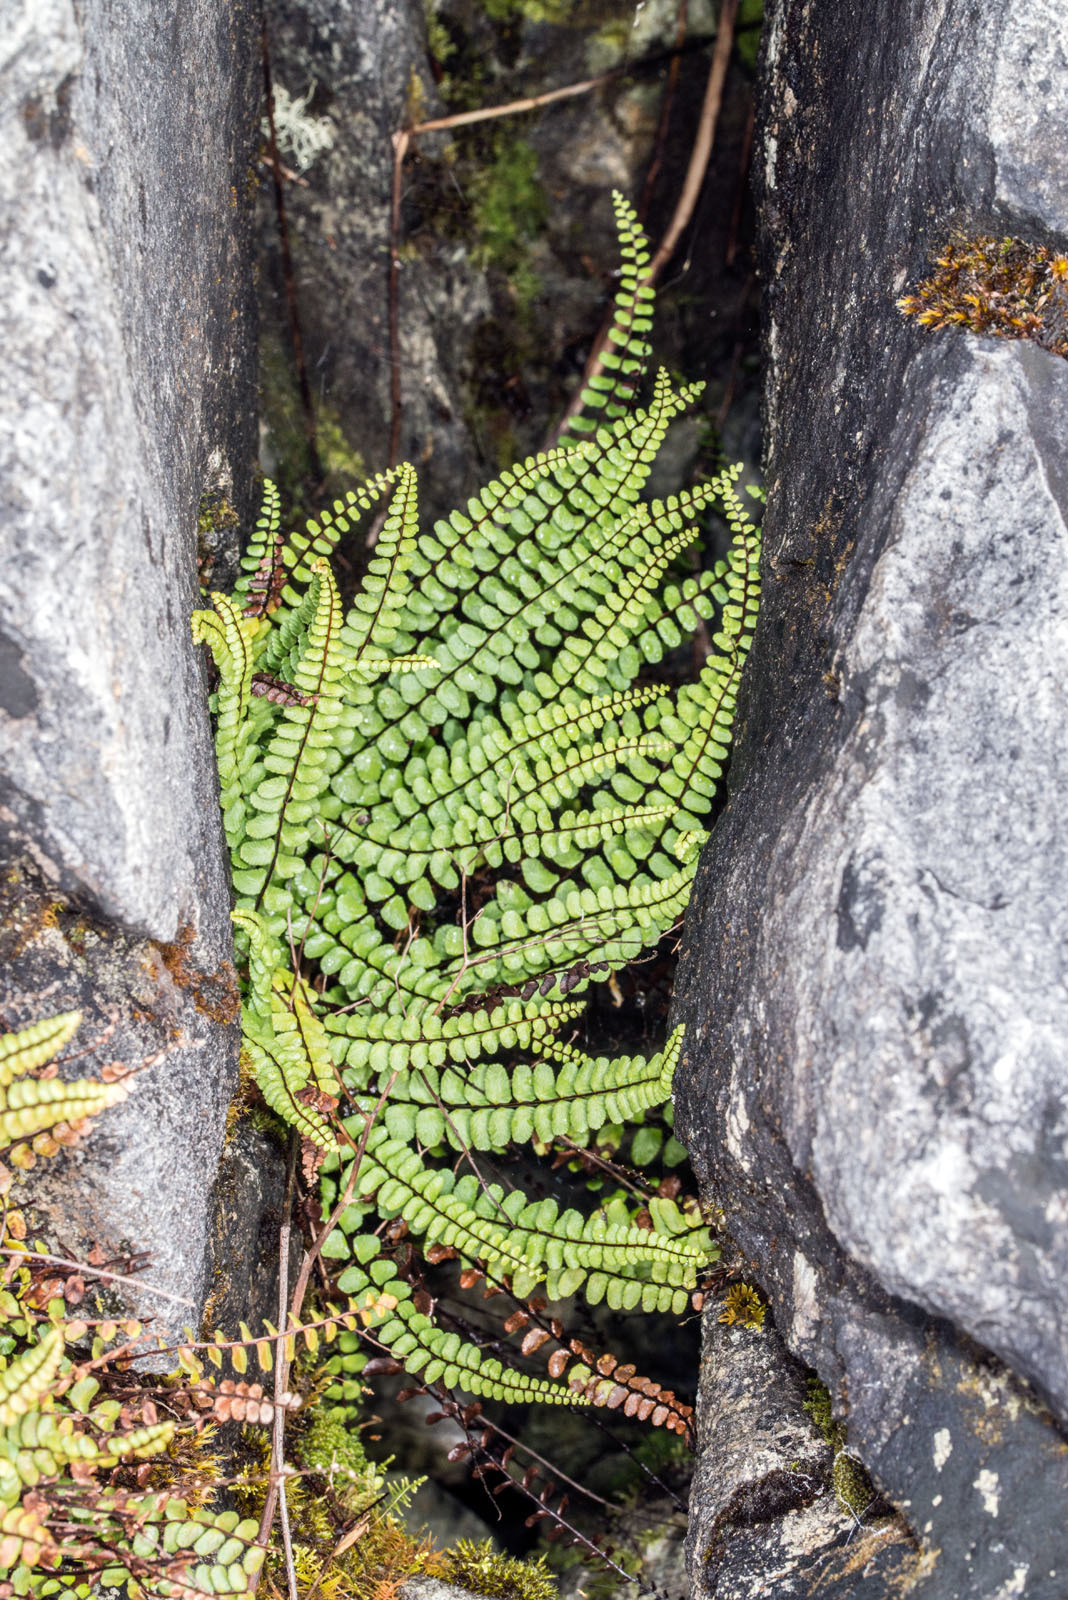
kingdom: Plantae
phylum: Tracheophyta
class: Polypodiopsida
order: Polypodiales
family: Aspleniaceae
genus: Asplenium
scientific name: Asplenium trichomanes
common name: Maidenhair spleenwort
